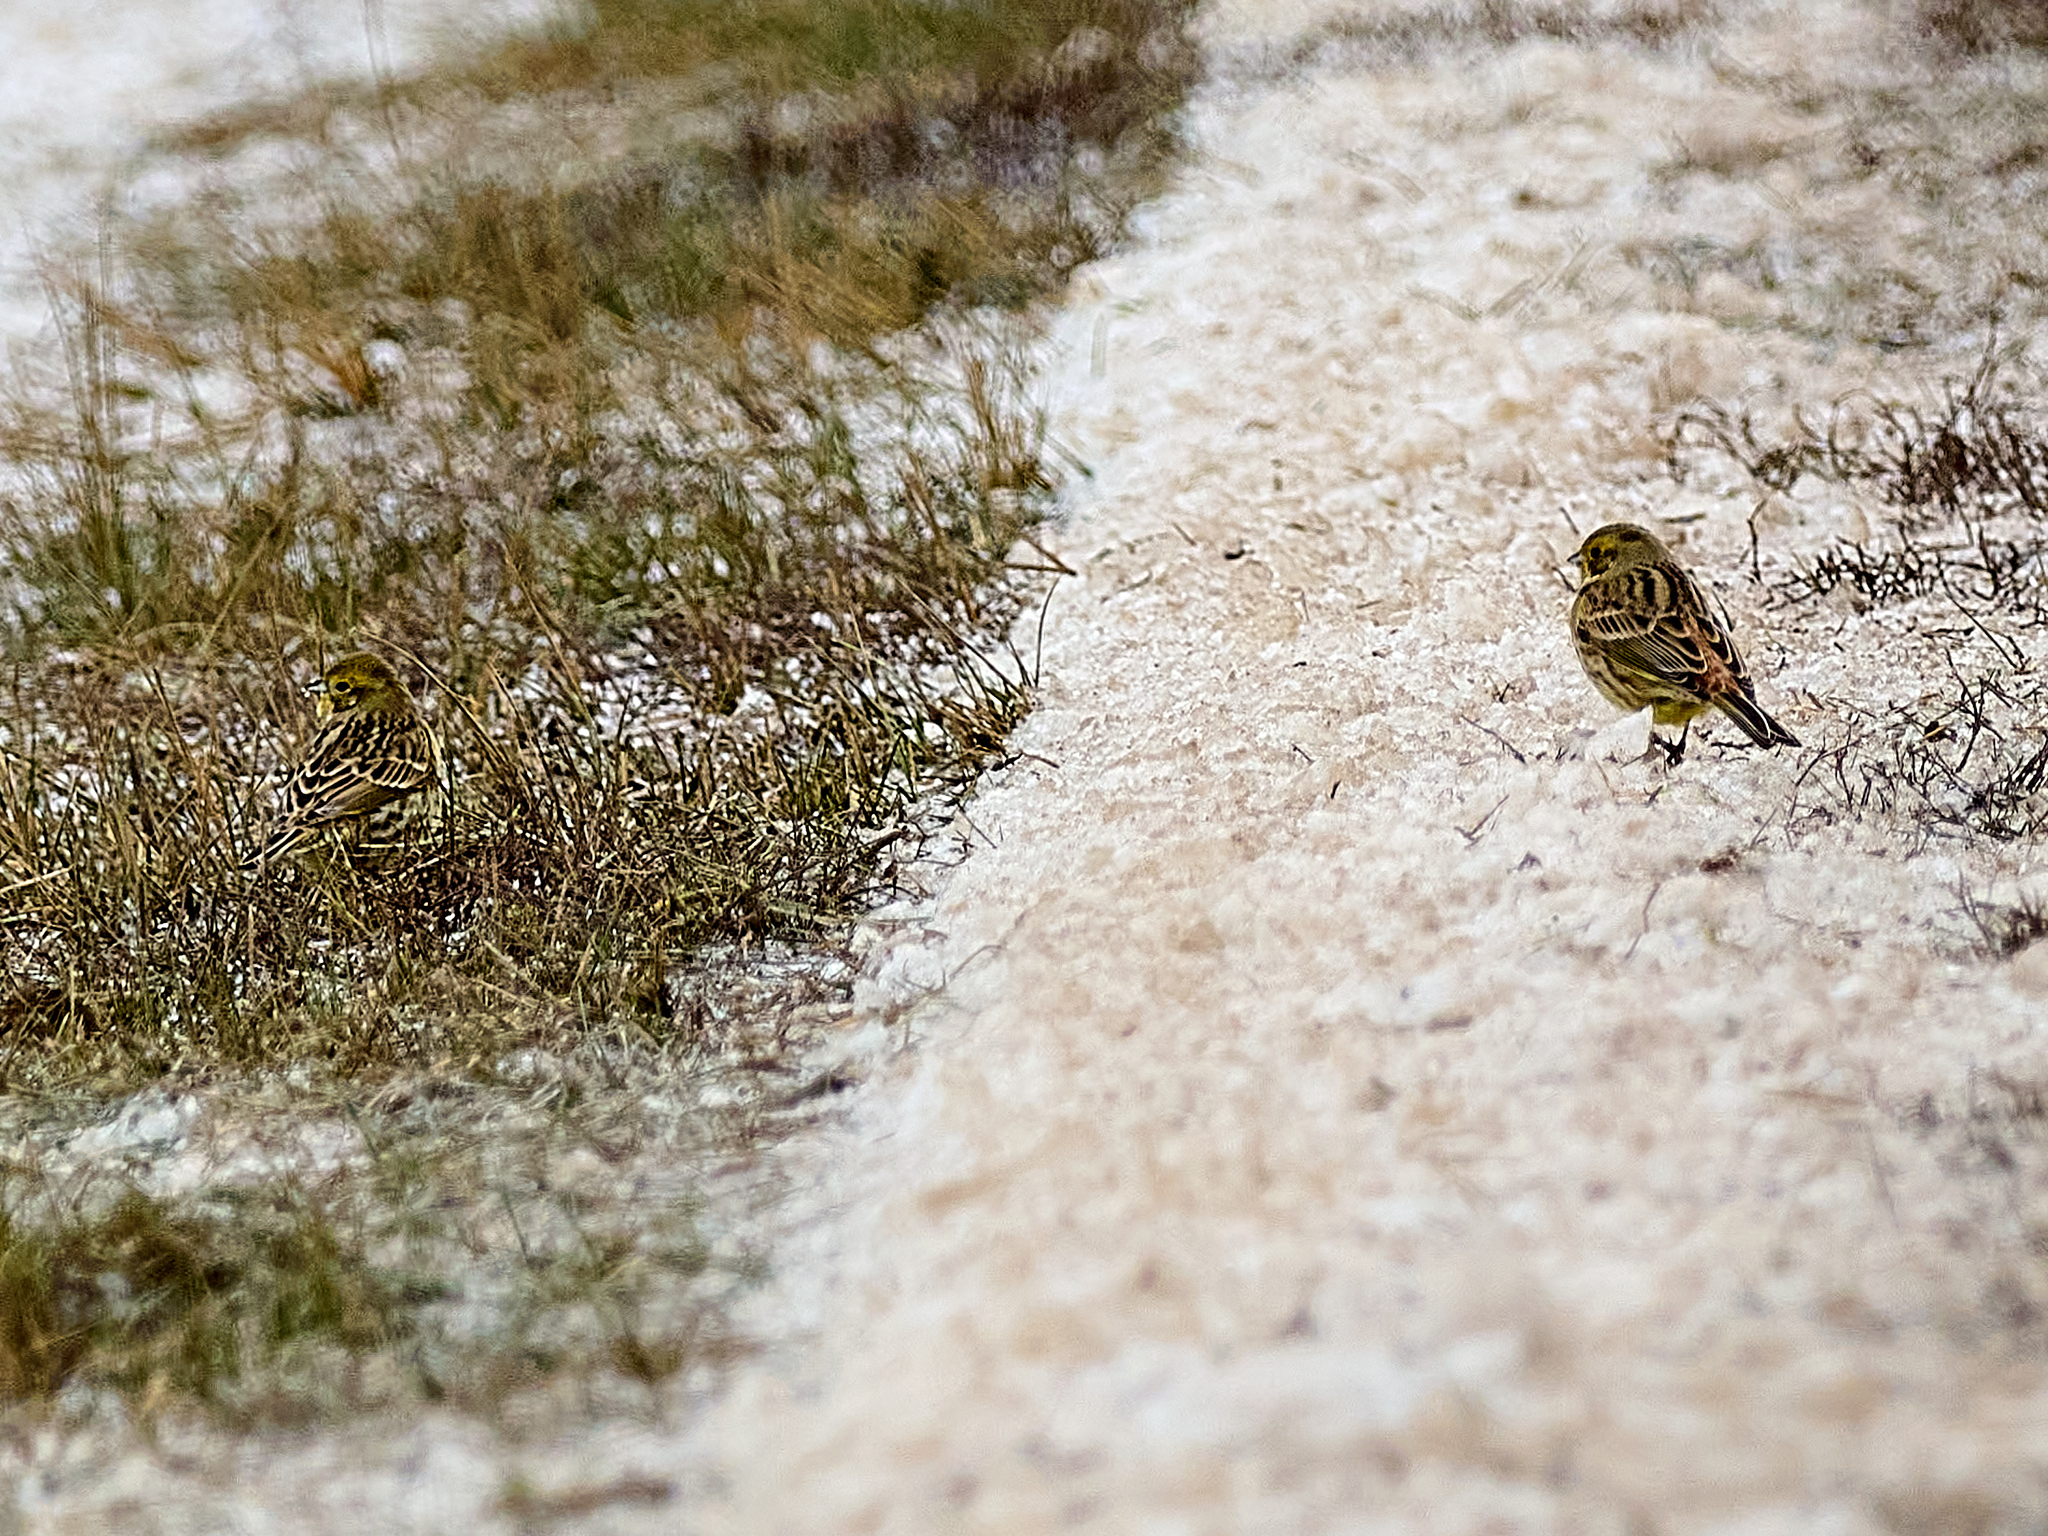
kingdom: Animalia
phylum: Chordata
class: Aves
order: Passeriformes
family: Emberizidae
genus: Emberiza
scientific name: Emberiza citrinella
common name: Yellowhammer
